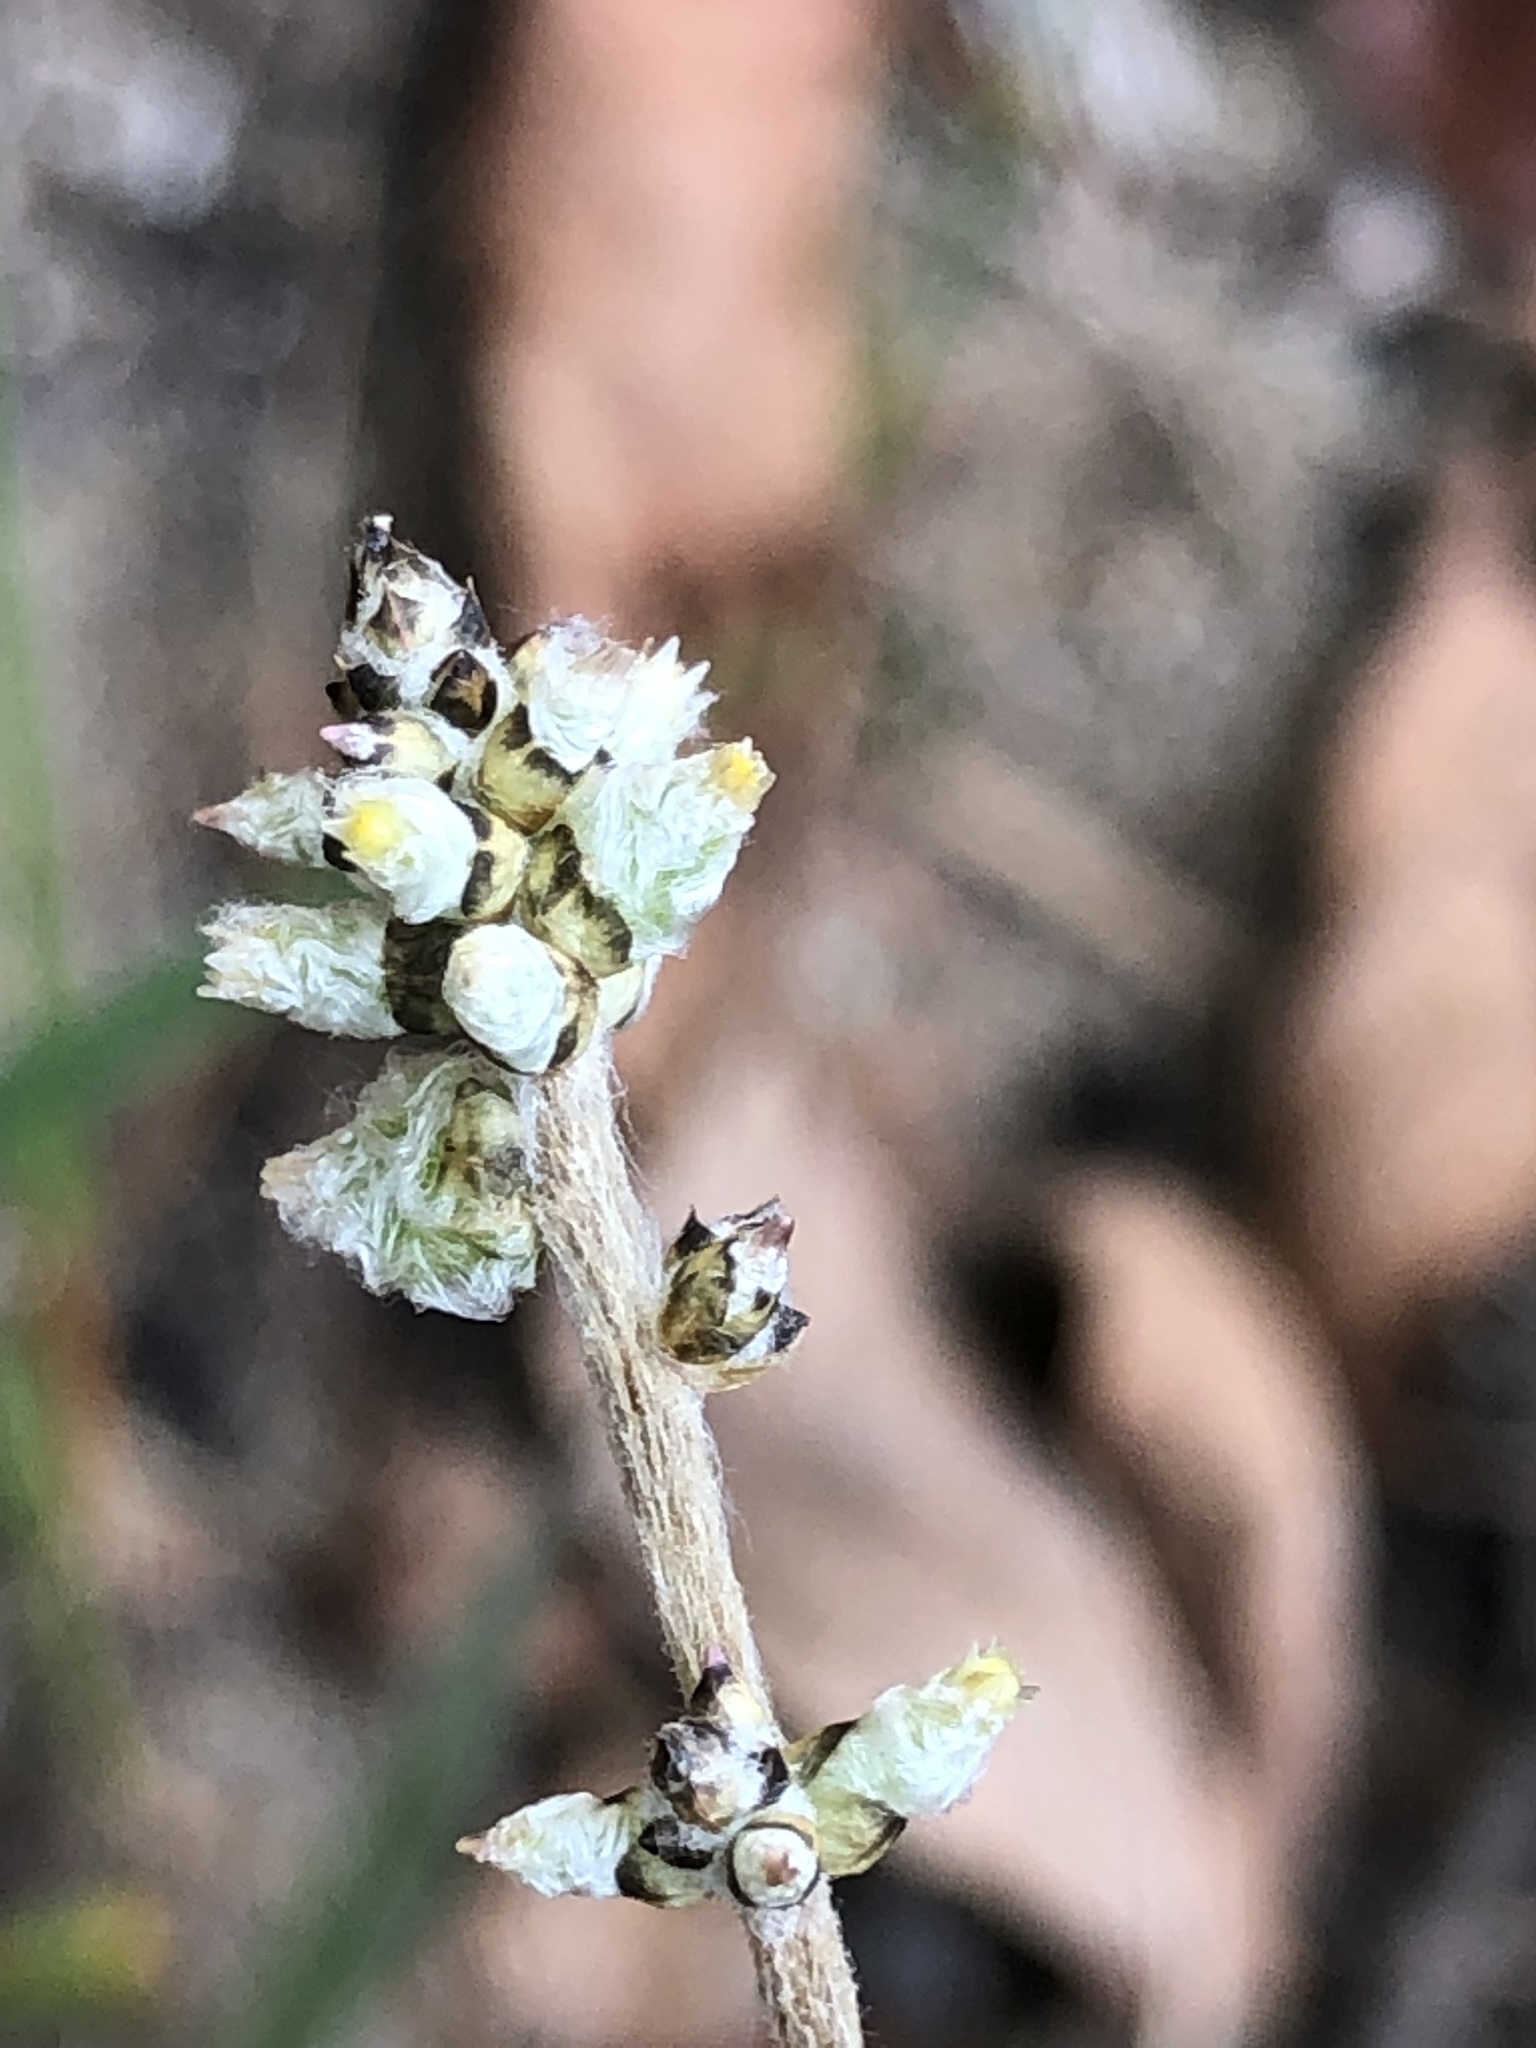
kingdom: Plantae
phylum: Tracheophyta
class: Magnoliopsida
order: Caryophyllales
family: Amaranthaceae
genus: Froelichia
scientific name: Froelichia gracilis
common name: Slender cottonweed
